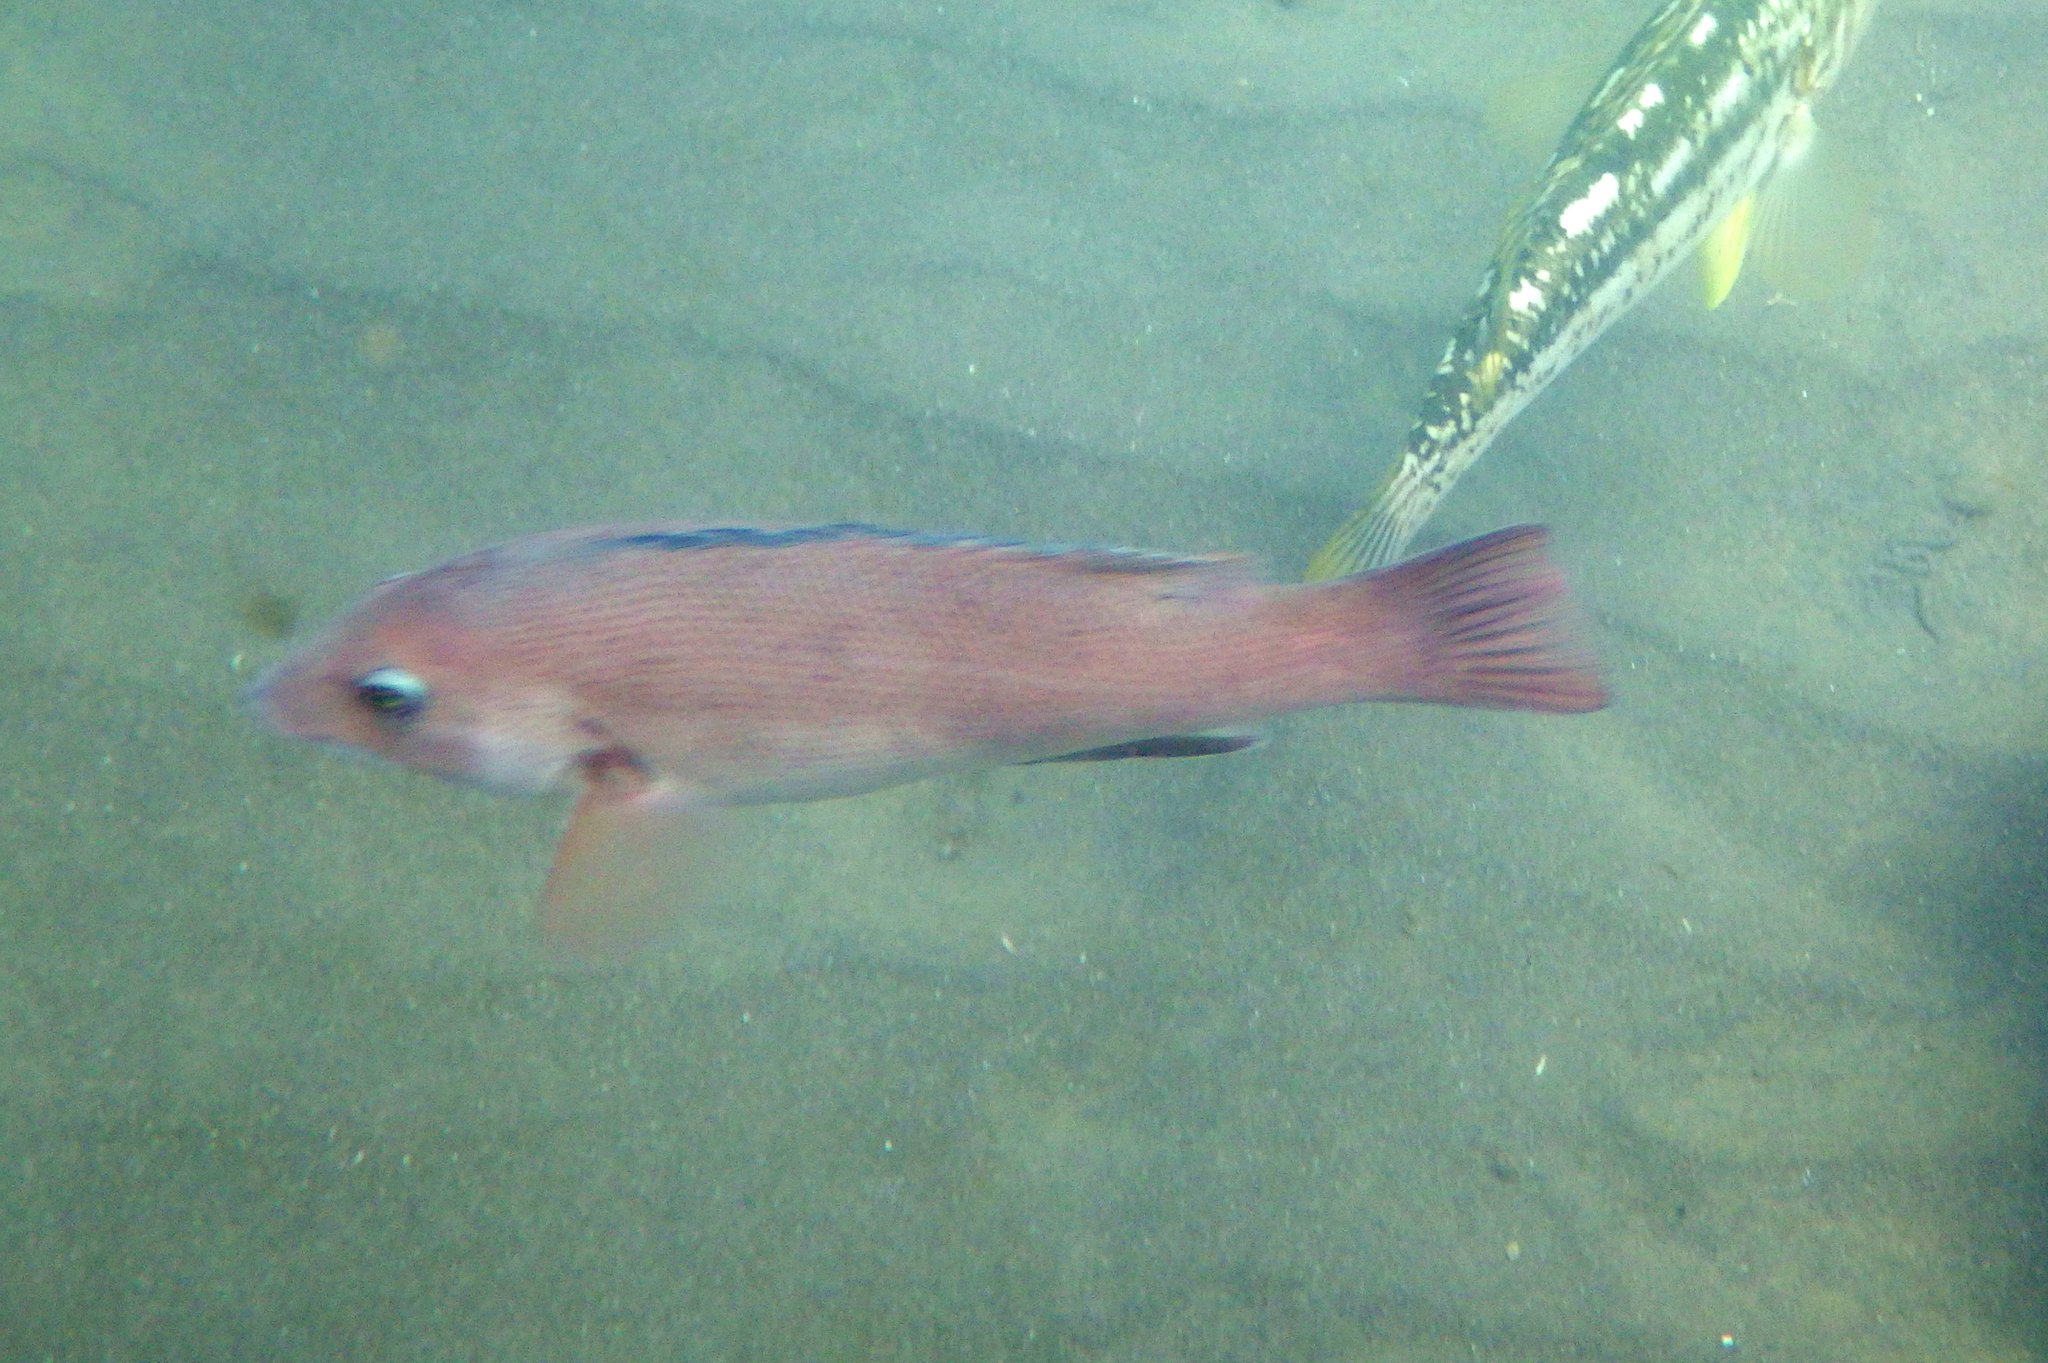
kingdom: Animalia
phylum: Chordata
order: Perciformes
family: Labridae
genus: Semicossyphus
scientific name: Semicossyphus pulcher
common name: California sheephead
